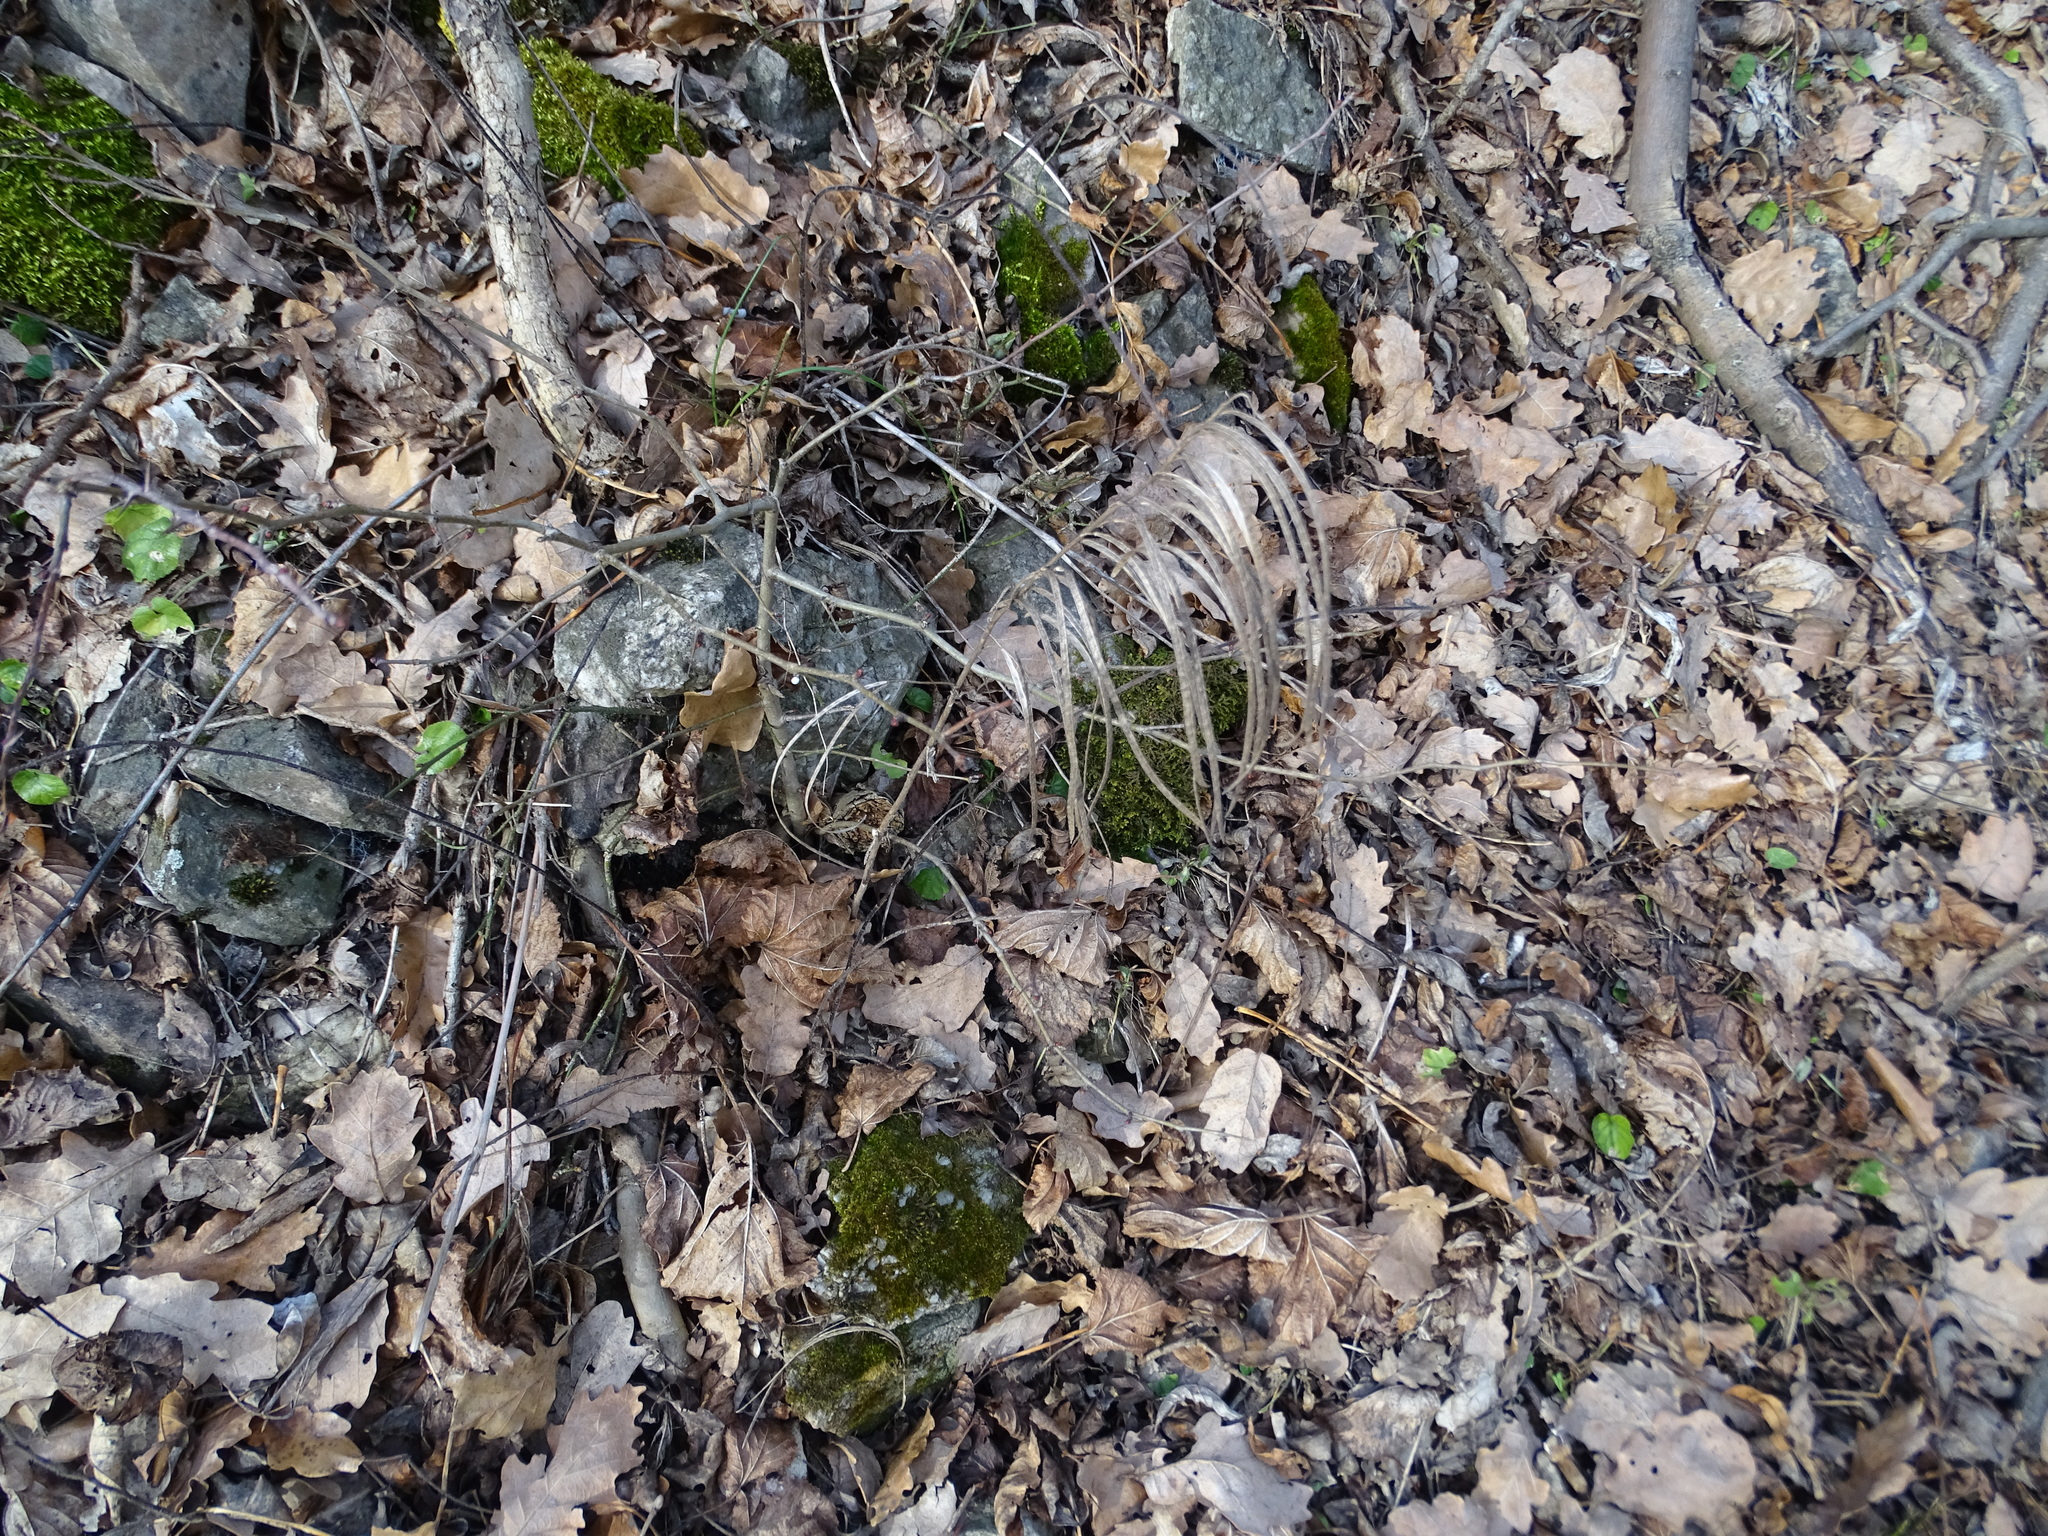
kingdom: Plantae
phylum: Tracheophyta
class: Magnoliopsida
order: Brassicales
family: Brassicaceae
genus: Pseudoturritis
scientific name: Pseudoturritis turrita
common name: Tower cress
